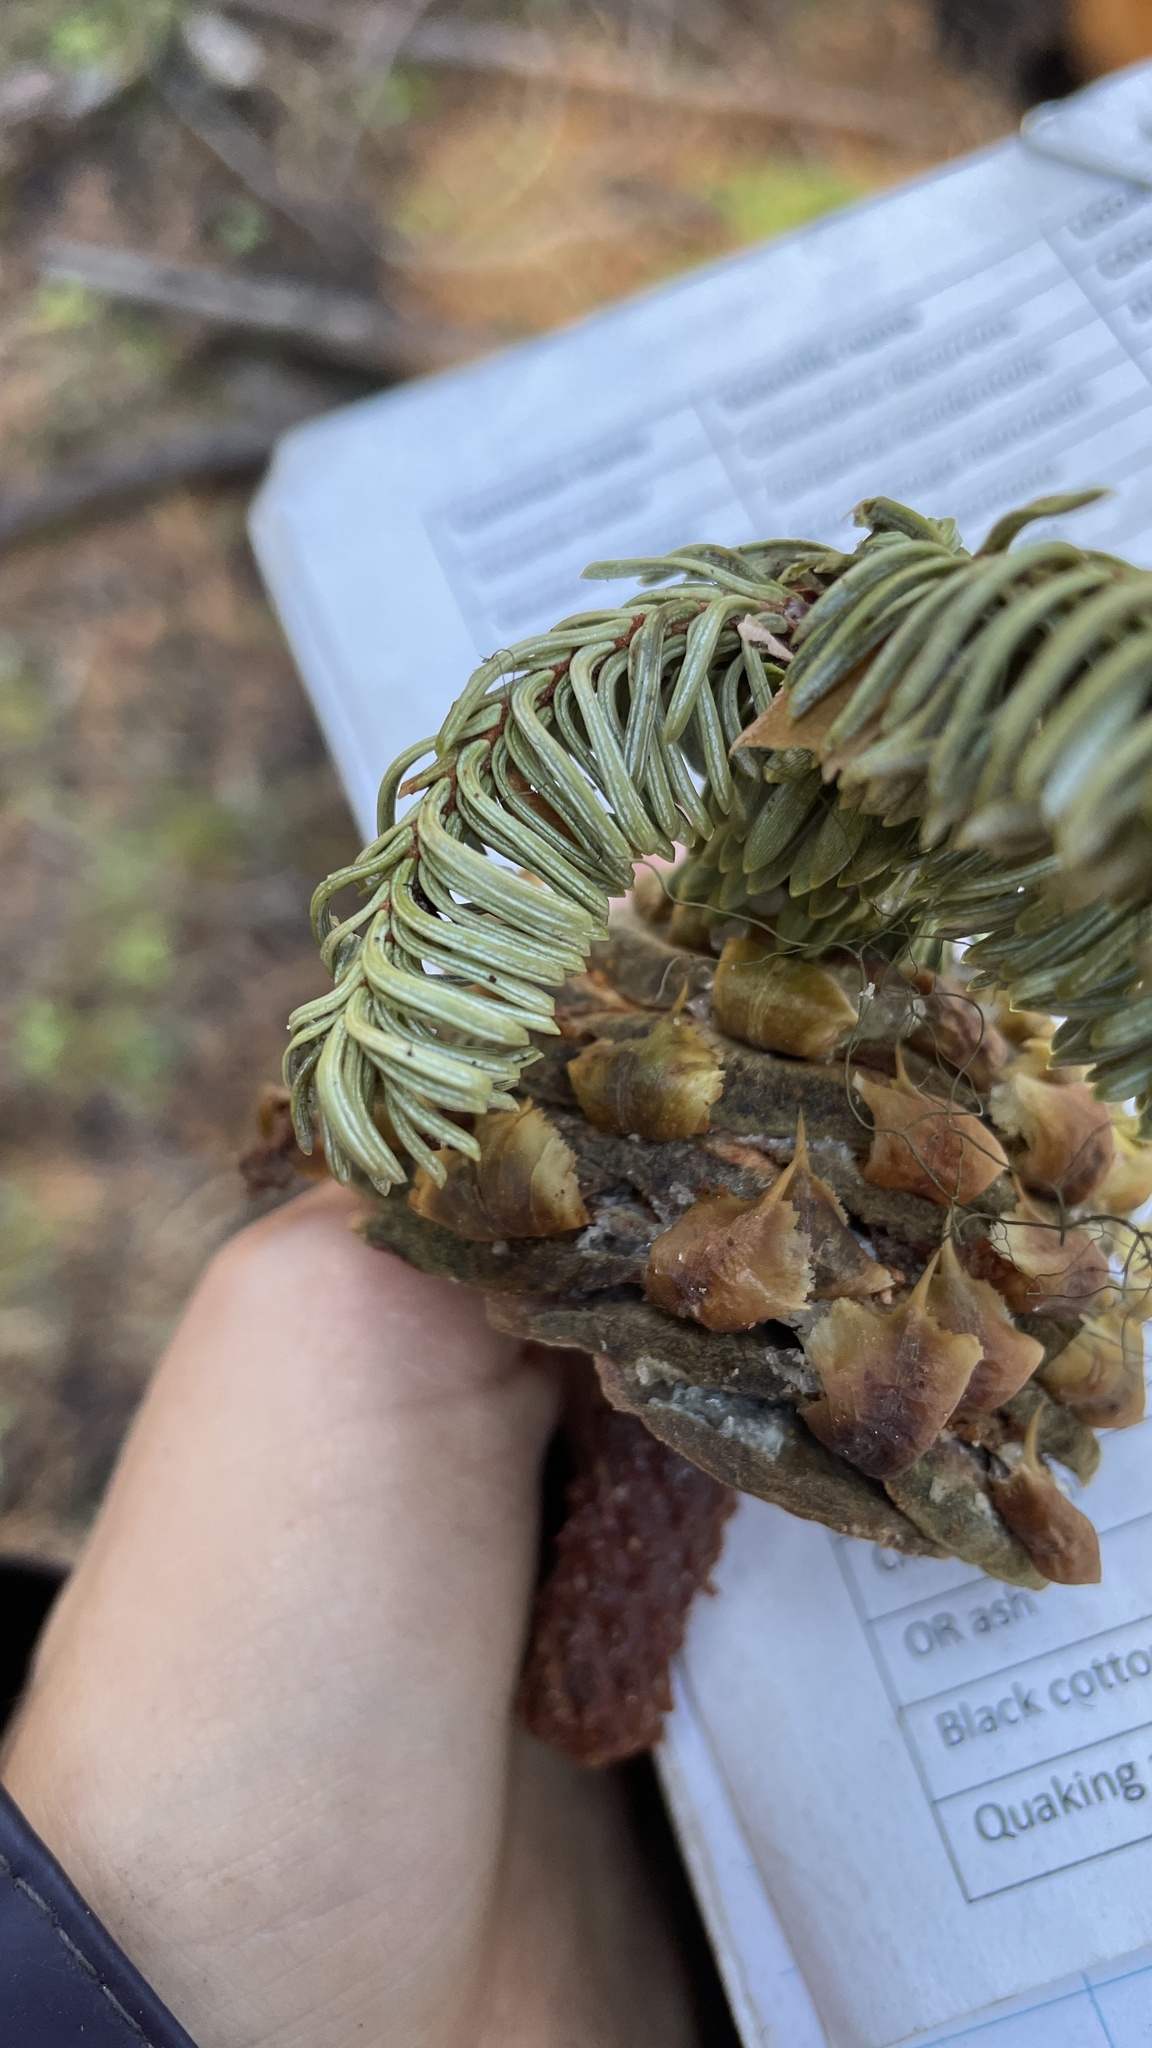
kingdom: Plantae
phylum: Tracheophyta
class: Pinopsida
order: Pinales
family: Pinaceae
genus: Abies
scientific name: Abies magnifica bis
